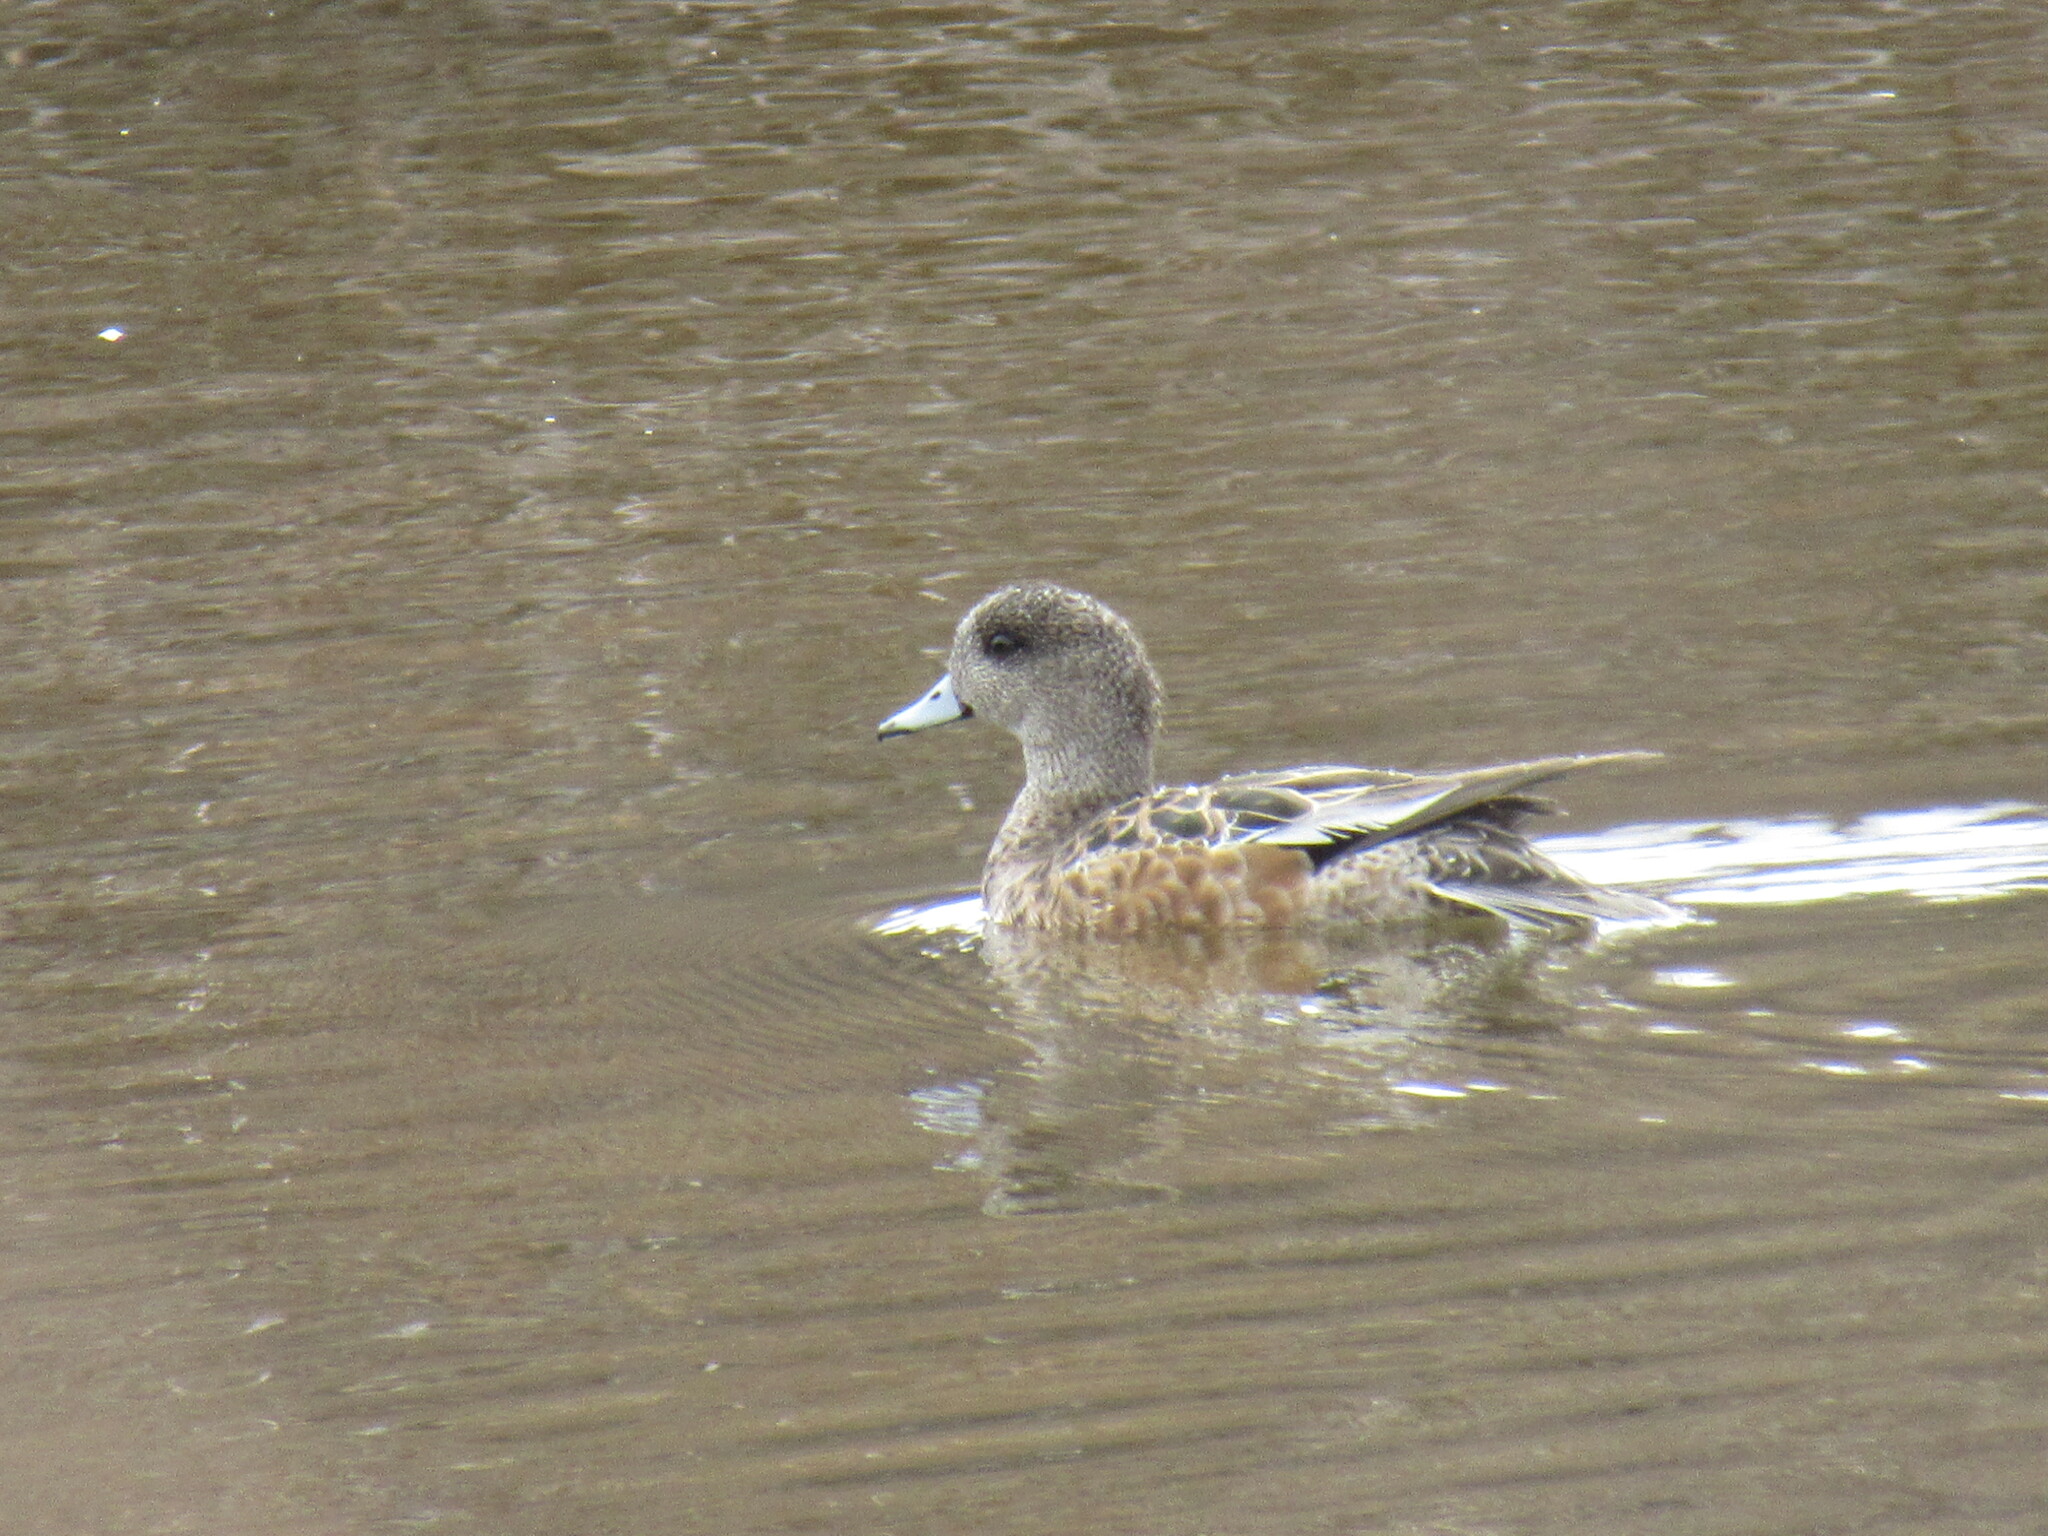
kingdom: Animalia
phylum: Chordata
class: Aves
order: Anseriformes
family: Anatidae
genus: Mareca
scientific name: Mareca americana
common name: American wigeon
